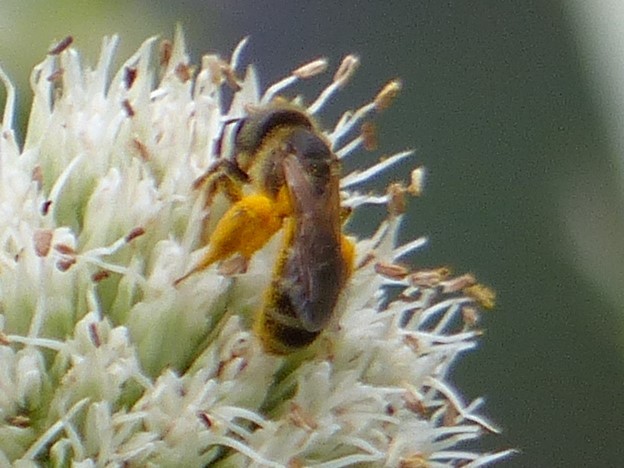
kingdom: Animalia
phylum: Arthropoda
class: Insecta
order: Hymenoptera
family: Halictidae
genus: Halictus
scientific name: Halictus ligatus
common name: Ligated furrow bee
